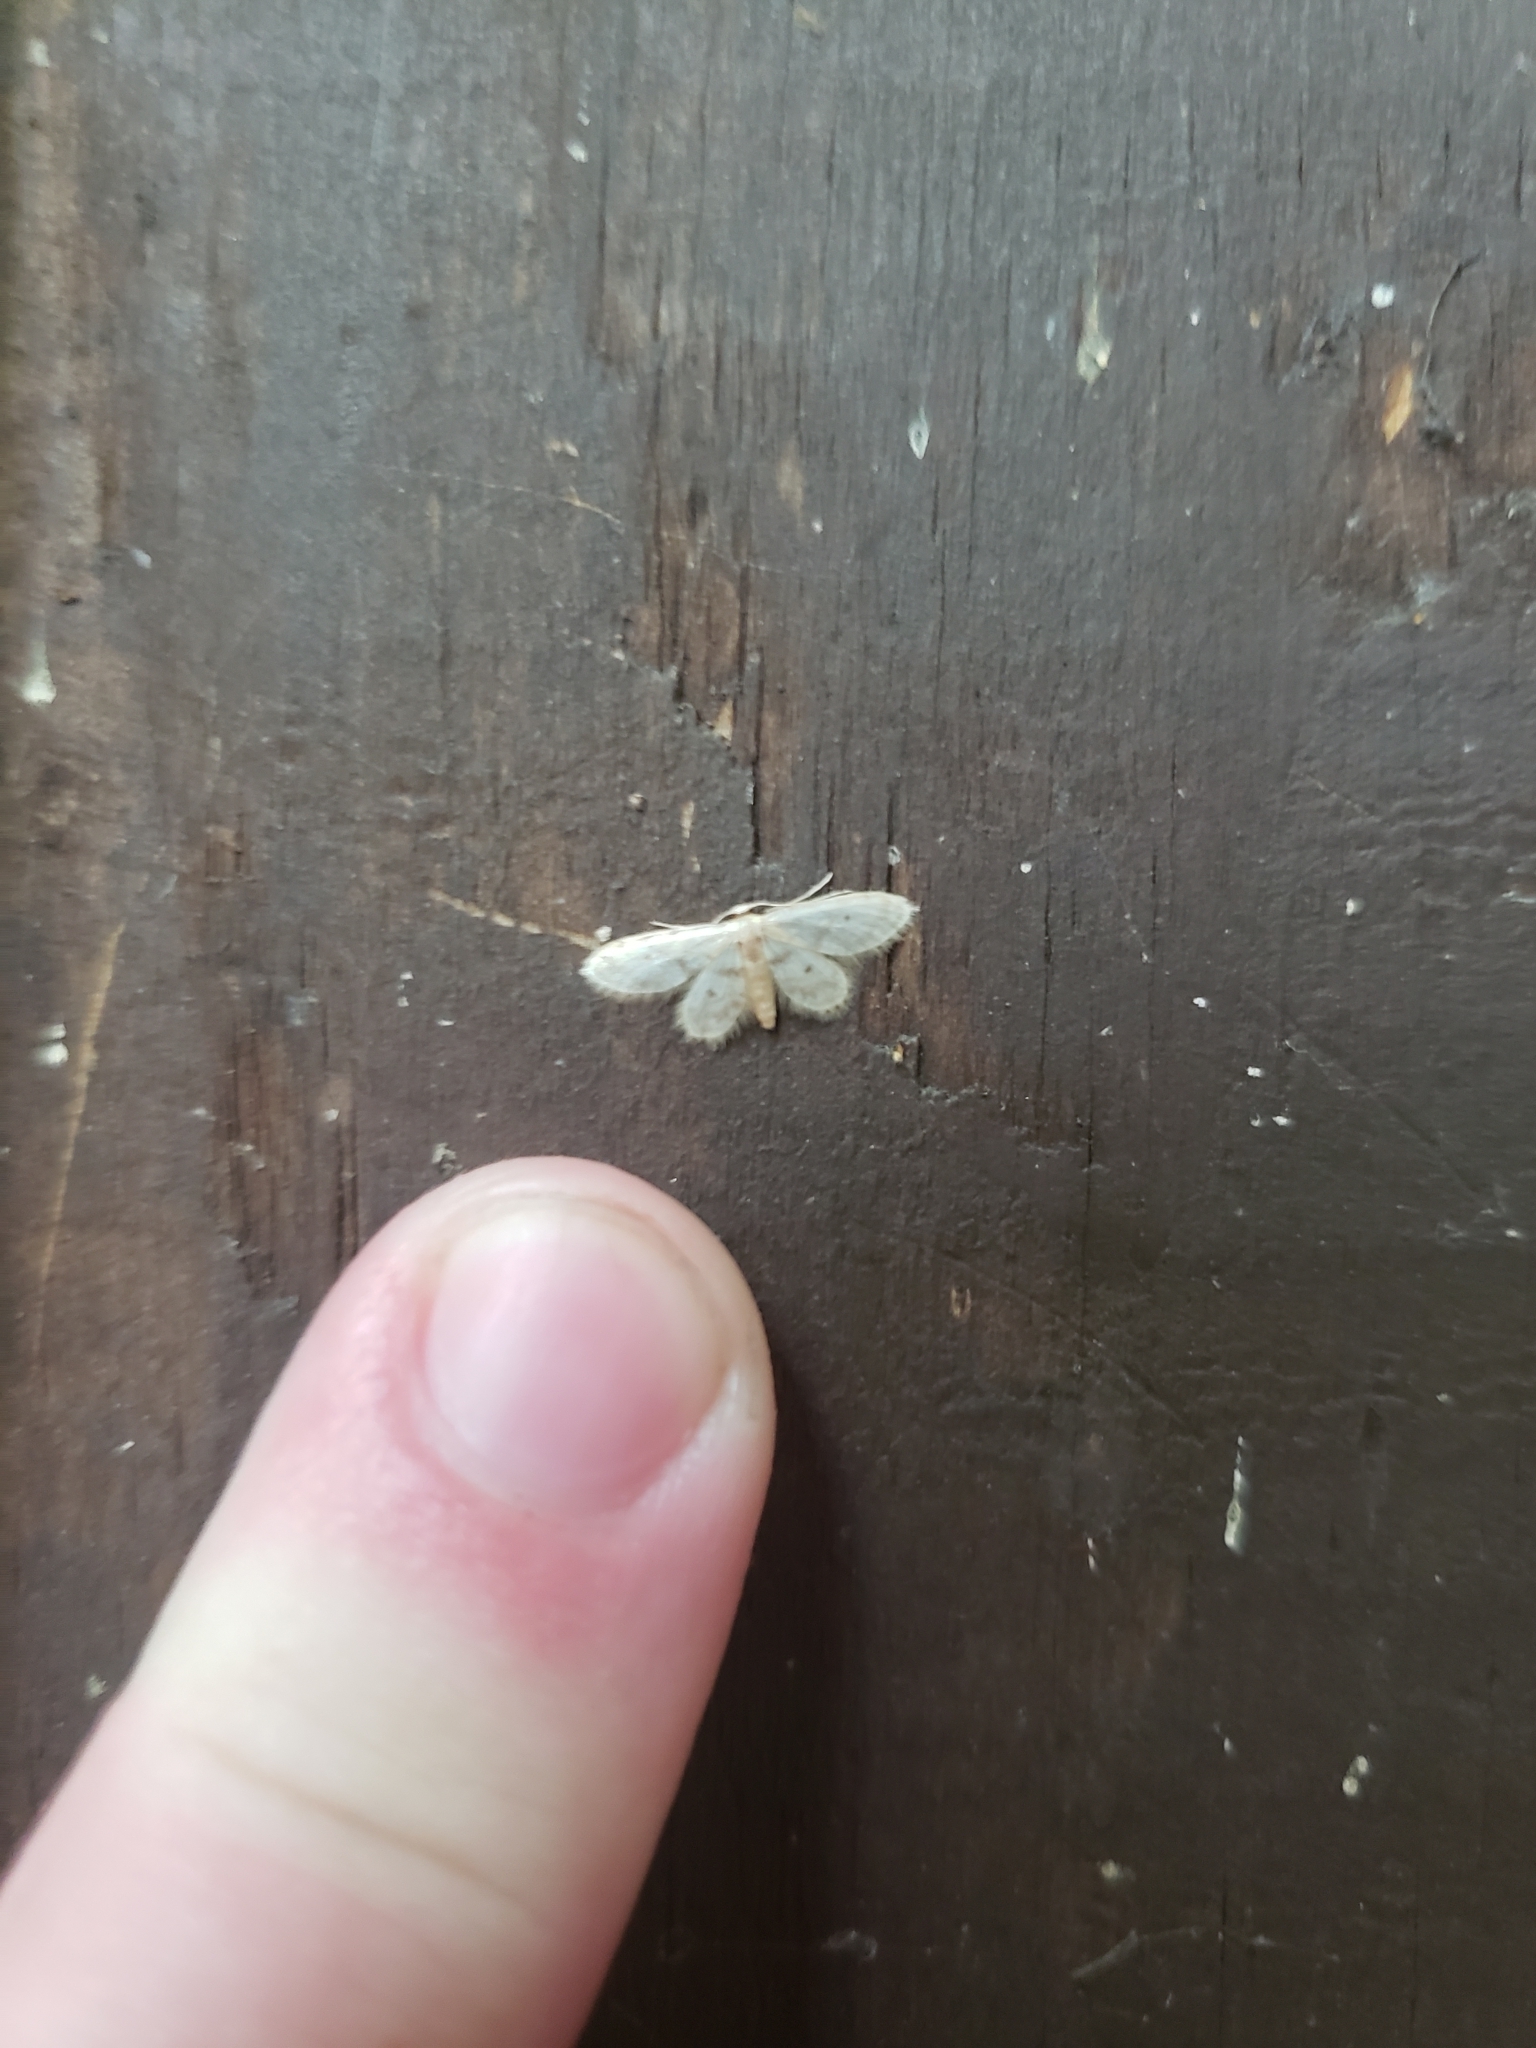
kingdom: Animalia
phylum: Arthropoda
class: Insecta
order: Lepidoptera
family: Geometridae
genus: Idaea
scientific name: Idaea bonifata
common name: Fortunate wave
